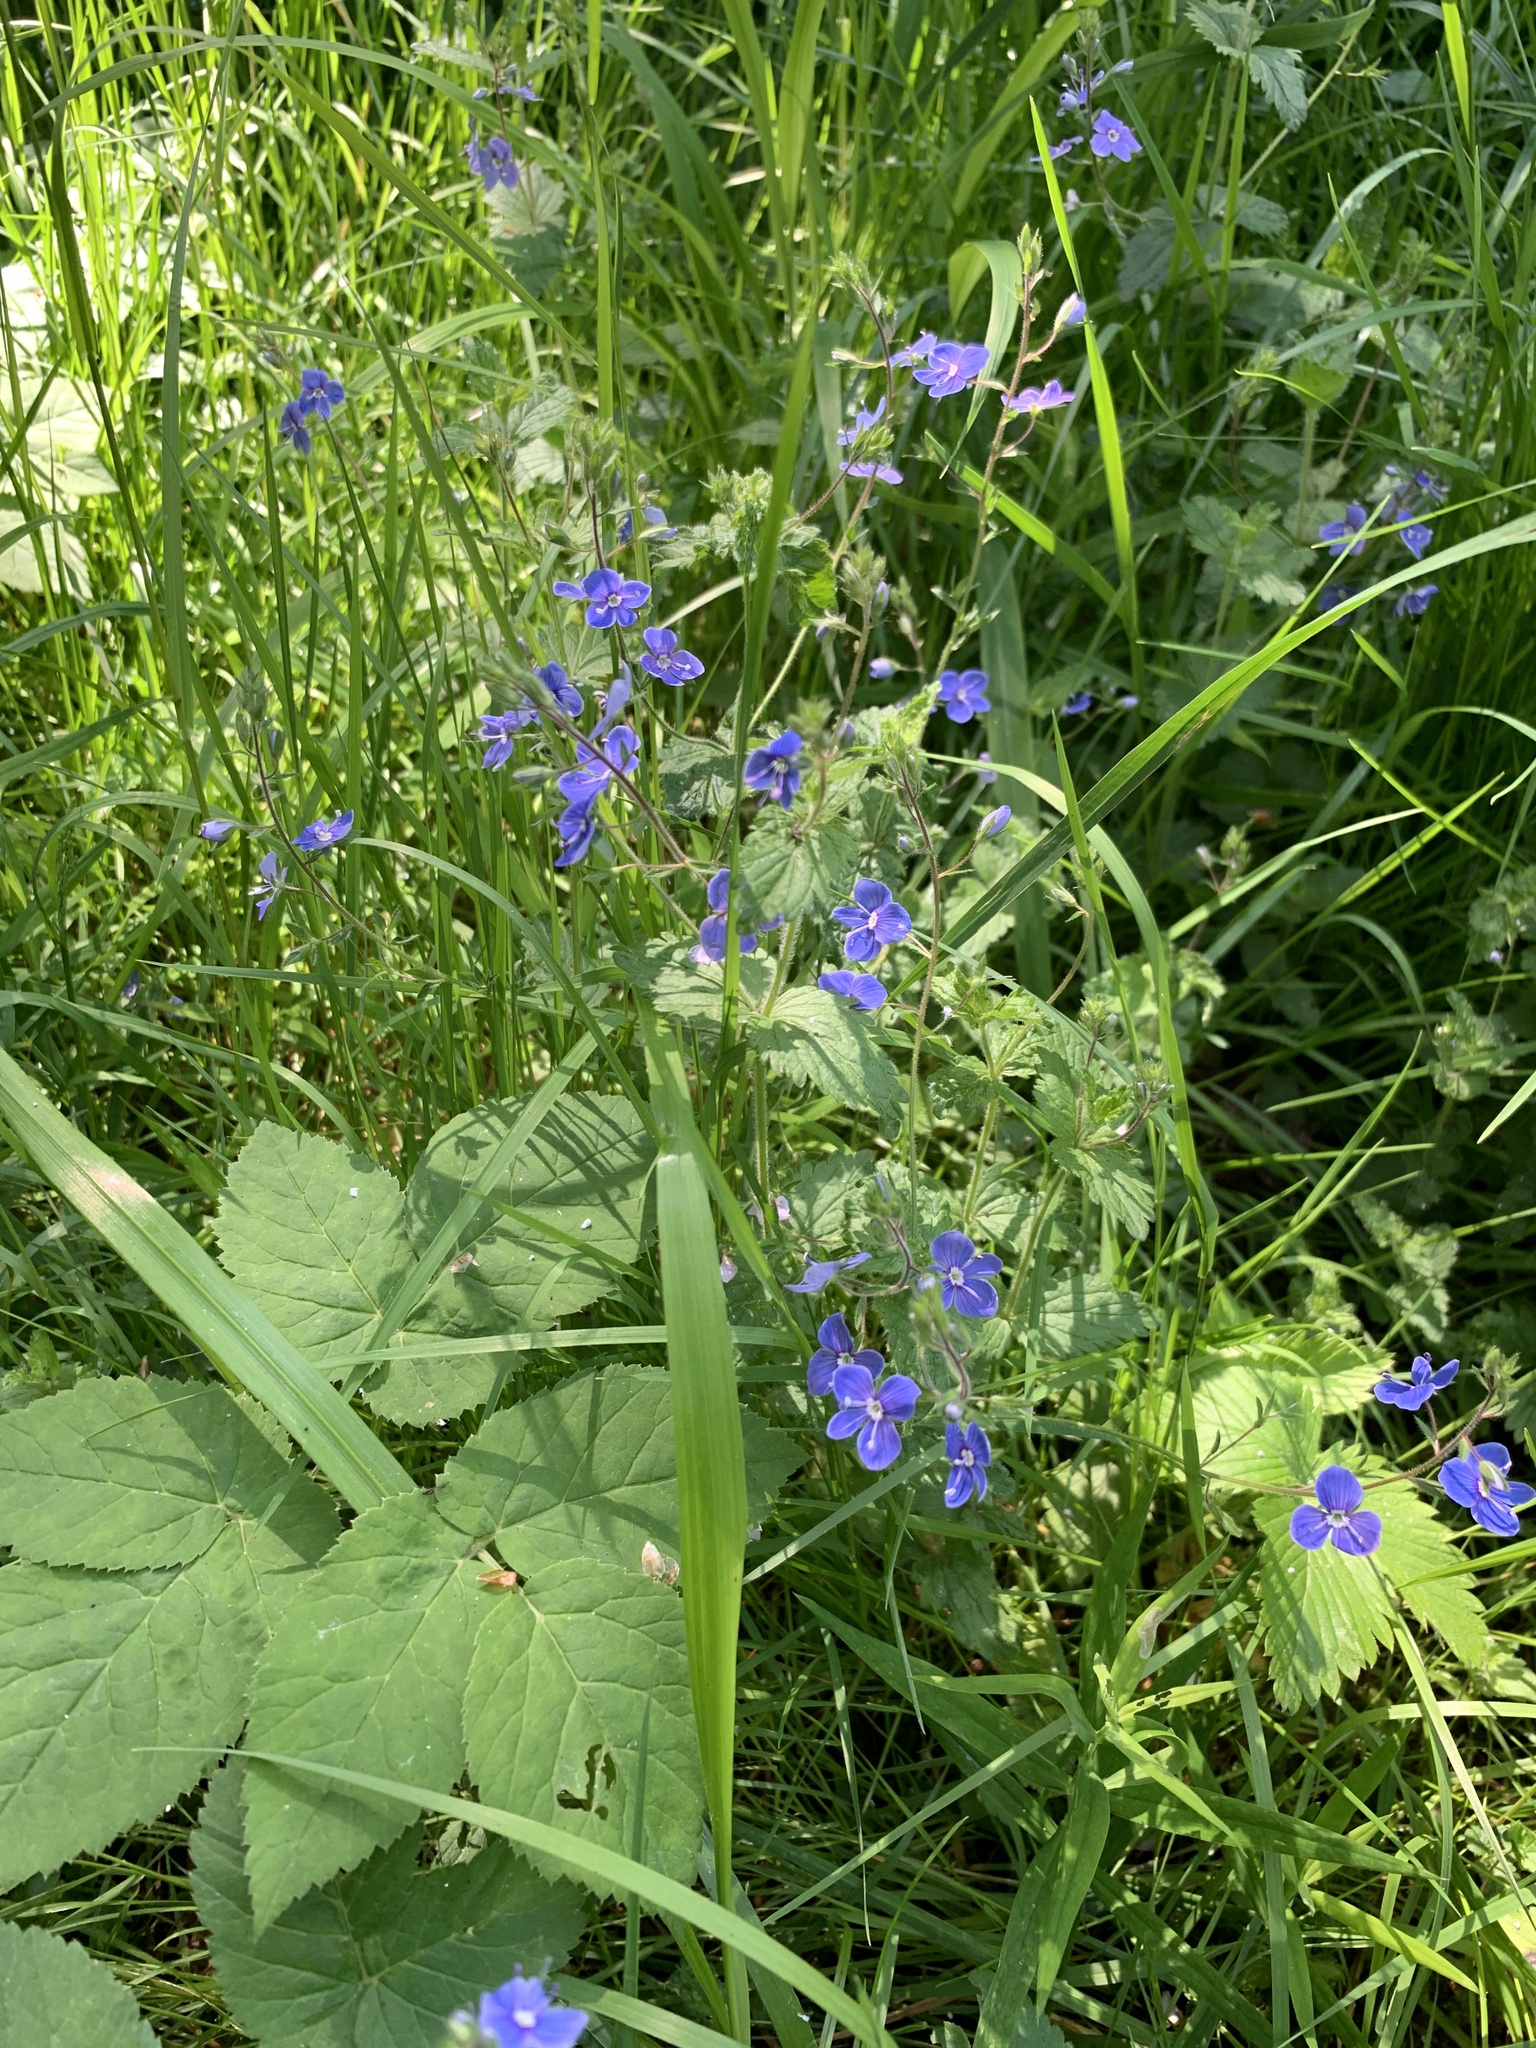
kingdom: Plantae
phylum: Tracheophyta
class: Magnoliopsida
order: Lamiales
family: Plantaginaceae
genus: Veronica
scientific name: Veronica chamaedrys
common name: Germander speedwell
